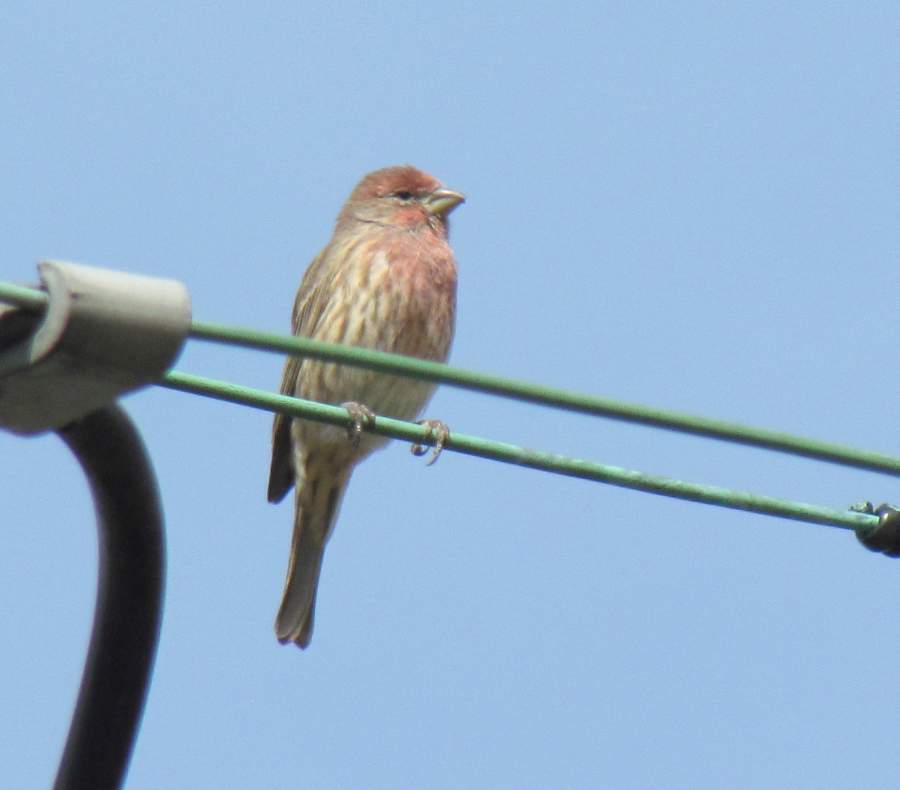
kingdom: Animalia
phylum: Chordata
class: Aves
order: Passeriformes
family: Fringillidae
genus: Haemorhous
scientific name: Haemorhous mexicanus
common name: House finch
